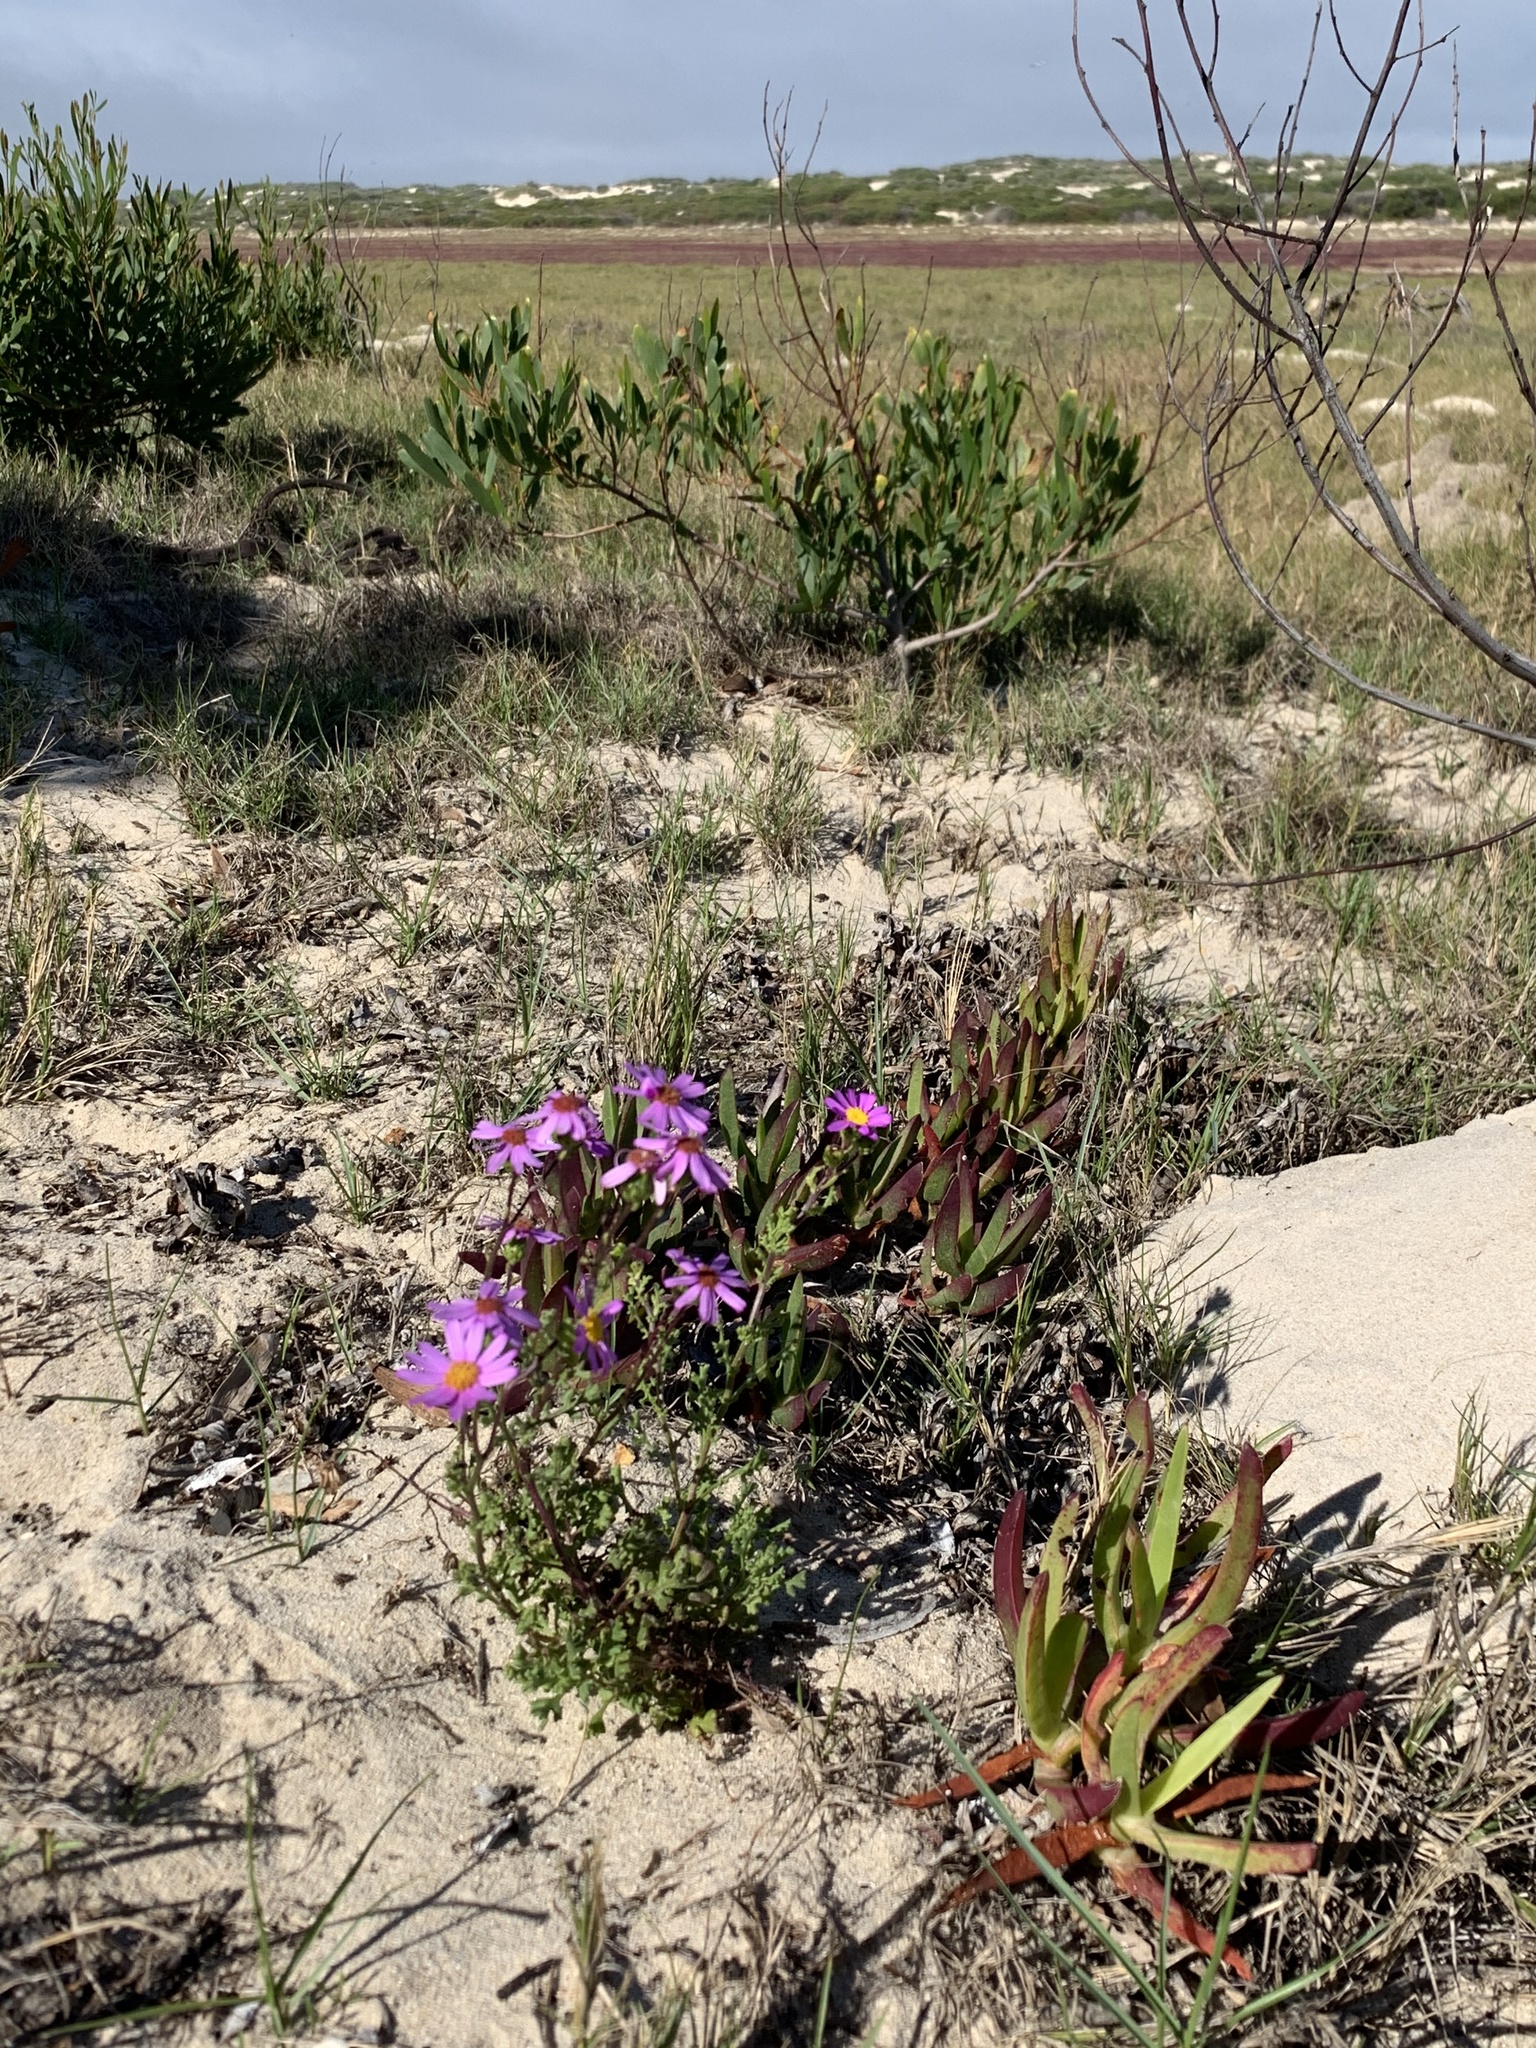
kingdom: Plantae
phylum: Tracheophyta
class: Magnoliopsida
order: Asterales
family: Asteraceae
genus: Senecio
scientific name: Senecio elegans
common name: Purple groundsel
